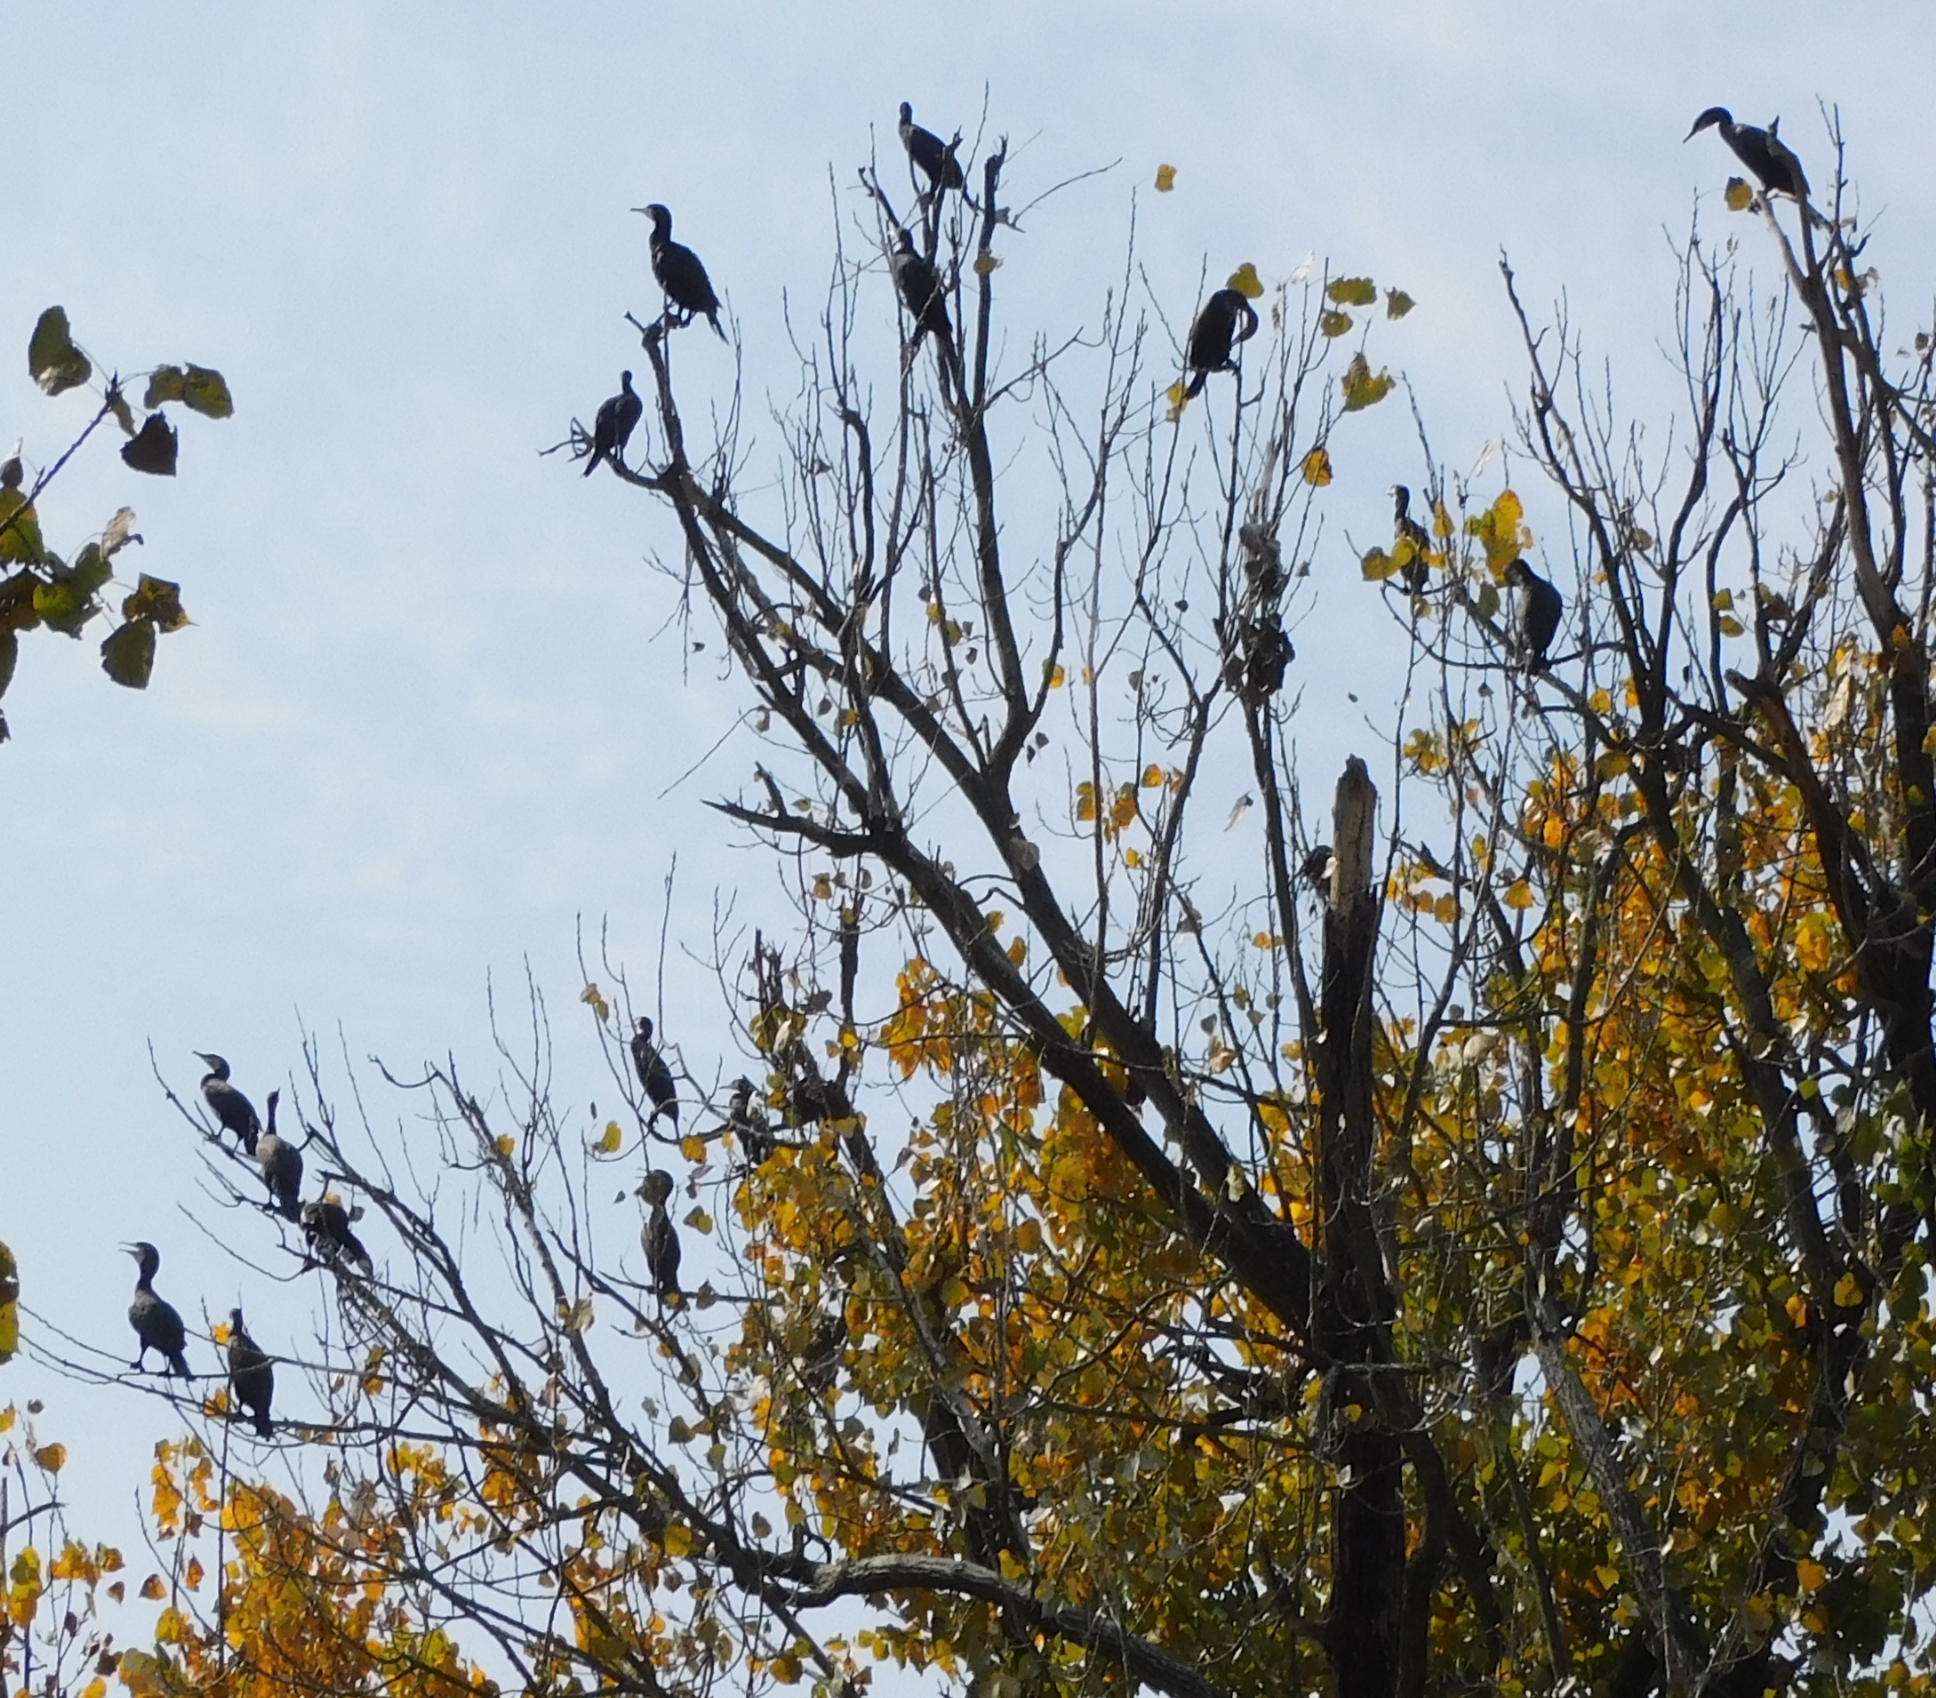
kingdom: Animalia
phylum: Chordata
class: Aves
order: Suliformes
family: Phalacrocoracidae
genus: Phalacrocorax
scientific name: Phalacrocorax carbo
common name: Great cormorant
